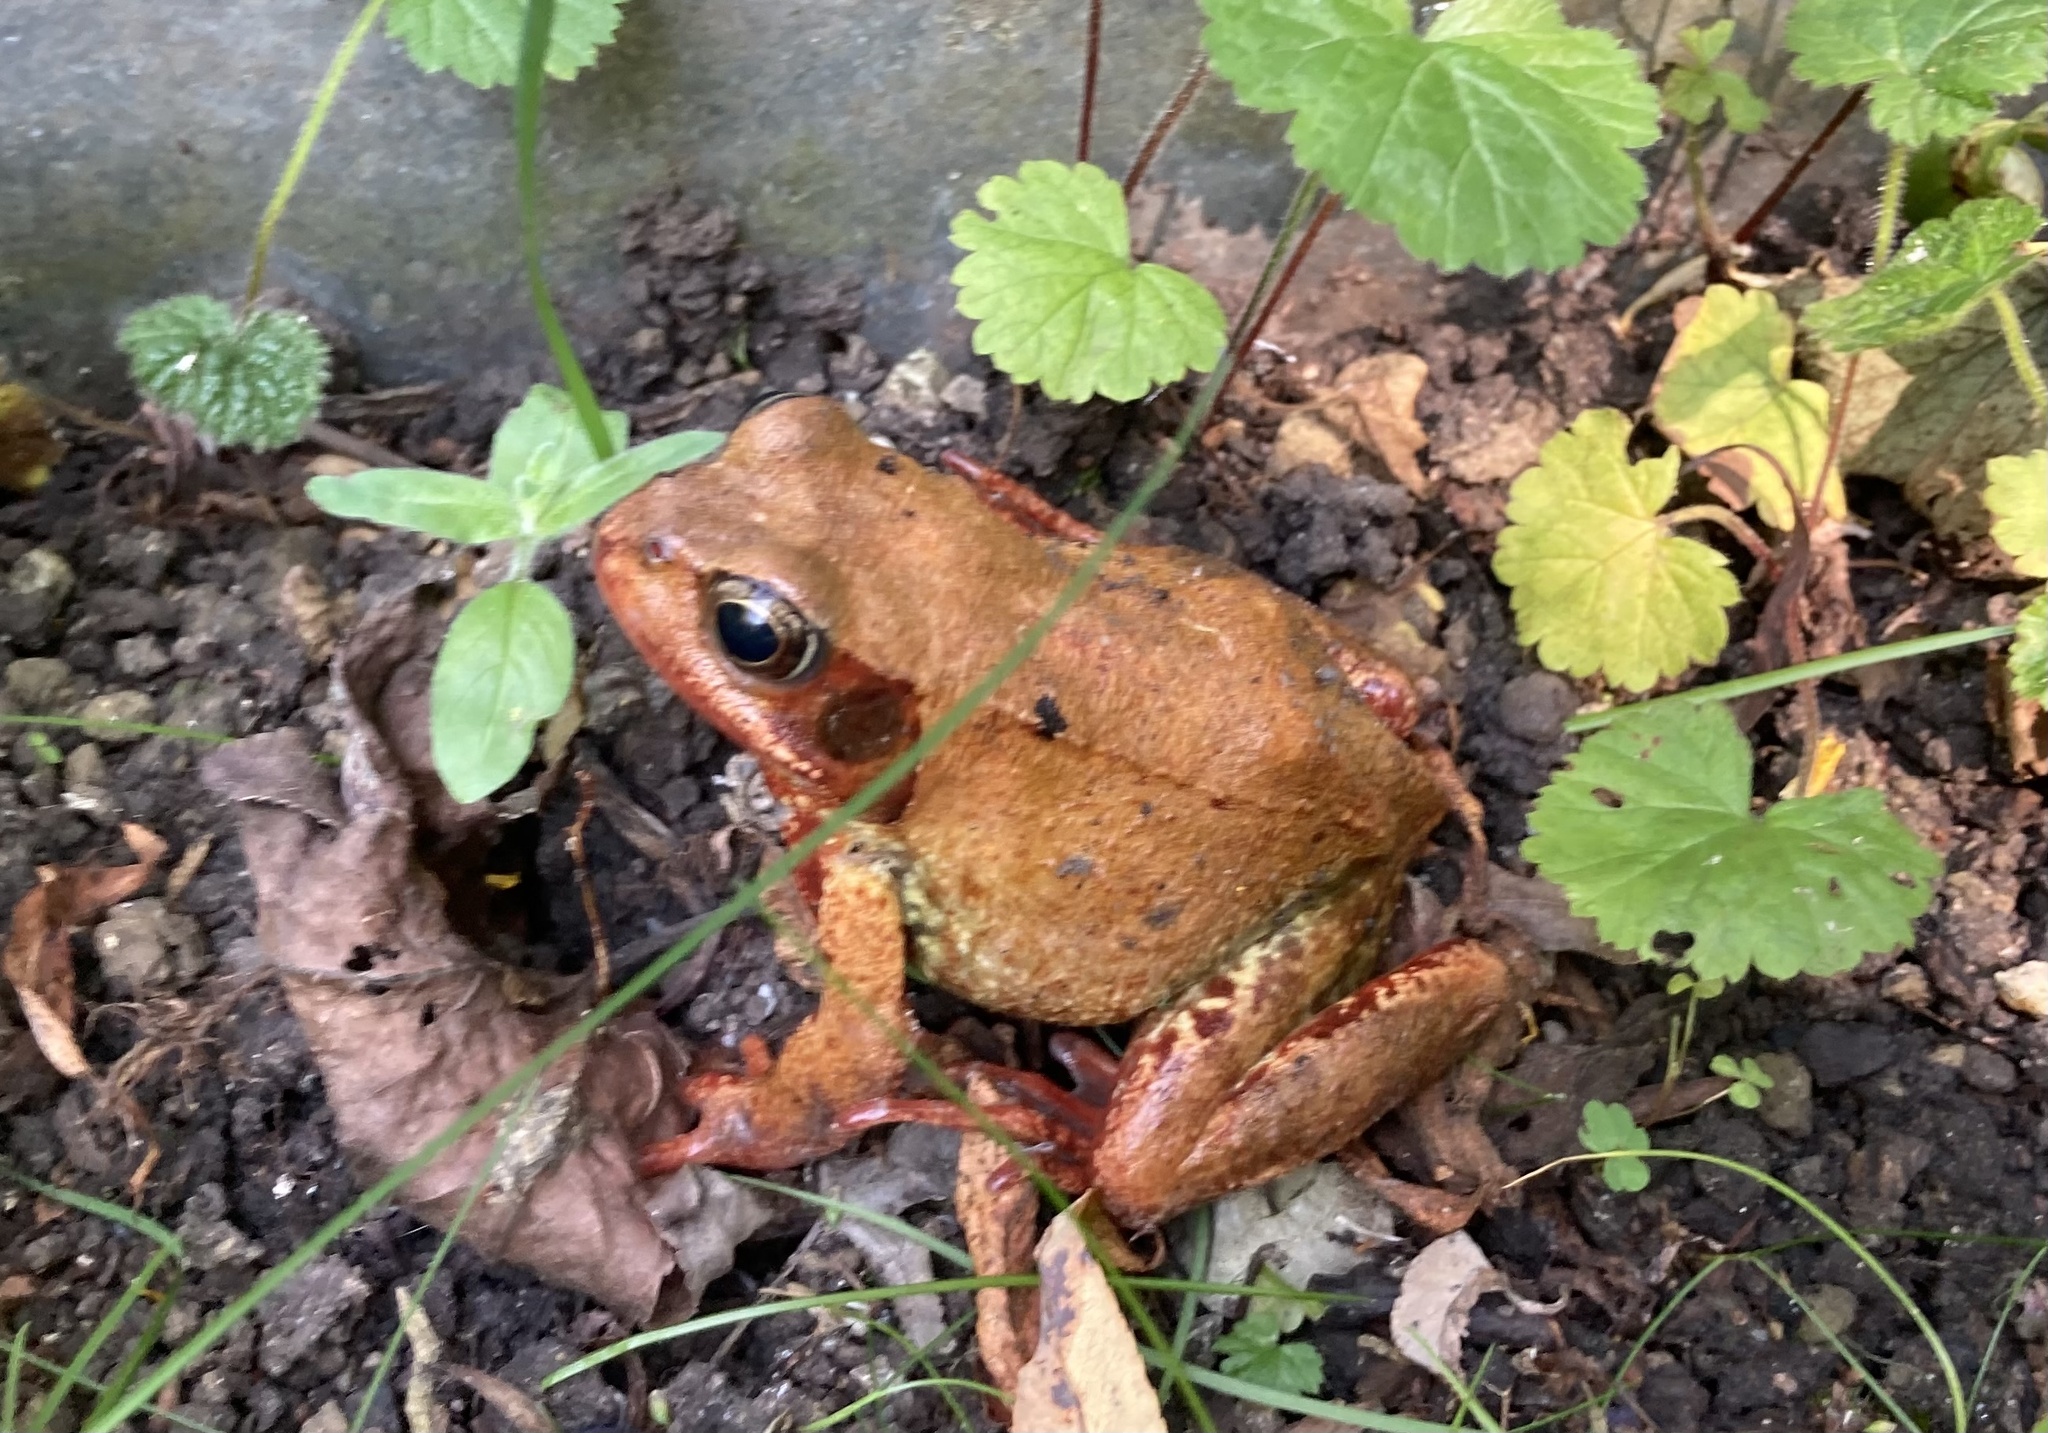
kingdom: Animalia
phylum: Chordata
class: Amphibia
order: Anura
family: Ranidae
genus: Rana
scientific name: Rana temporaria
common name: Common frog
